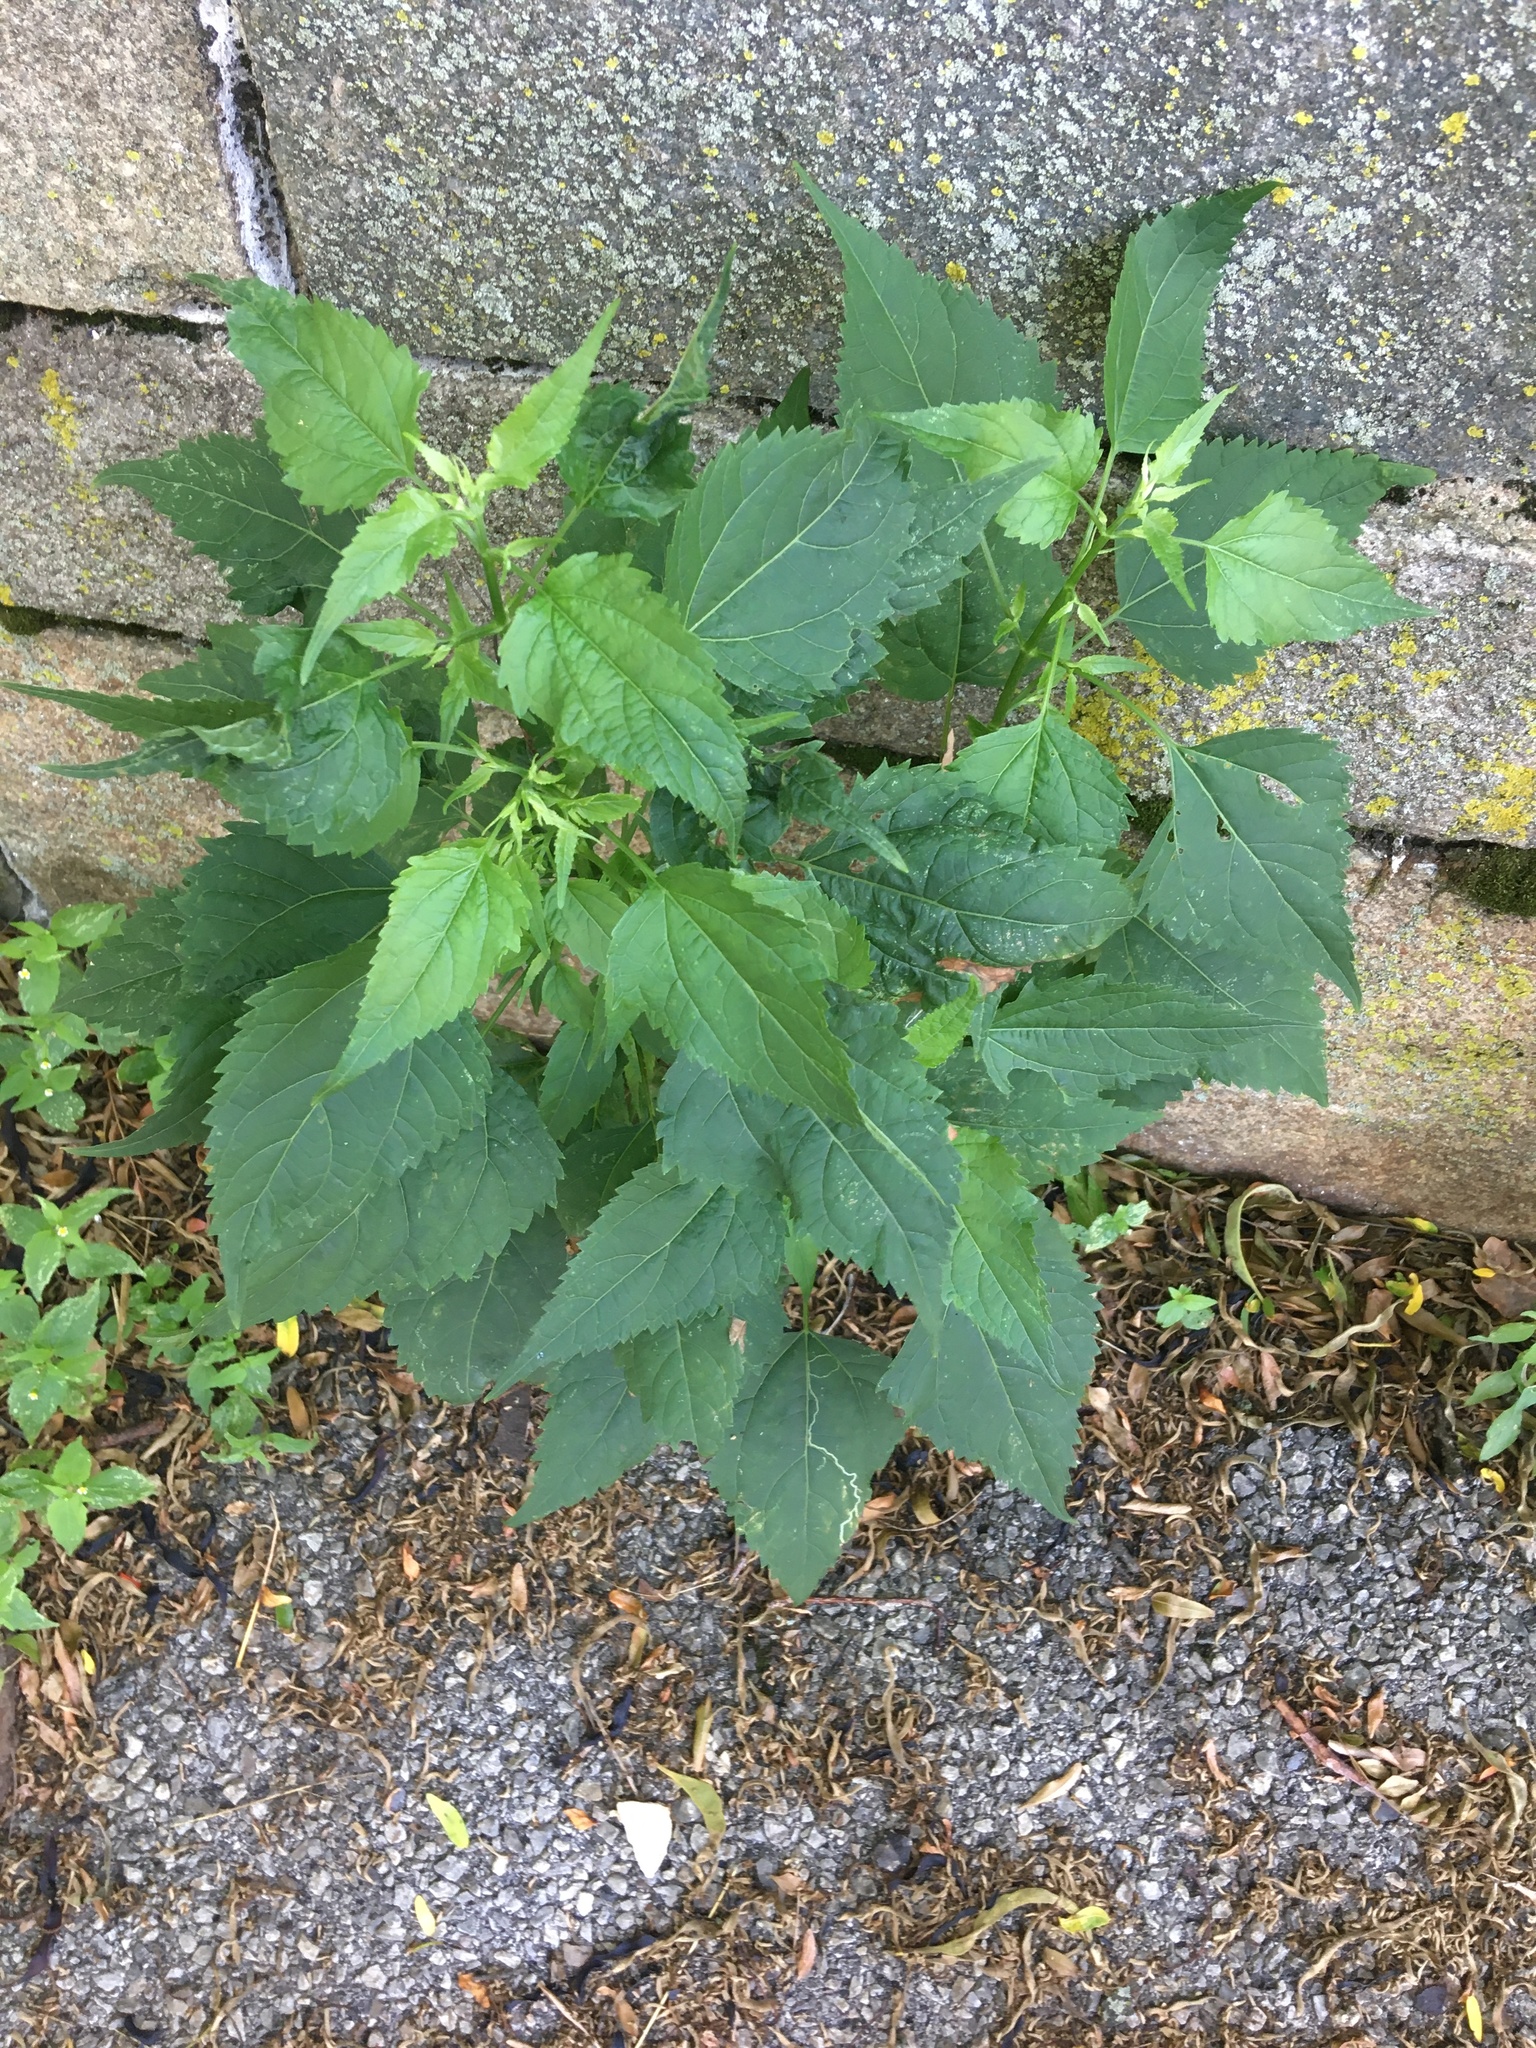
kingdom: Plantae
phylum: Tracheophyta
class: Magnoliopsida
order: Asterales
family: Asteraceae
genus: Ageratina
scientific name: Ageratina altissima
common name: White snakeroot
